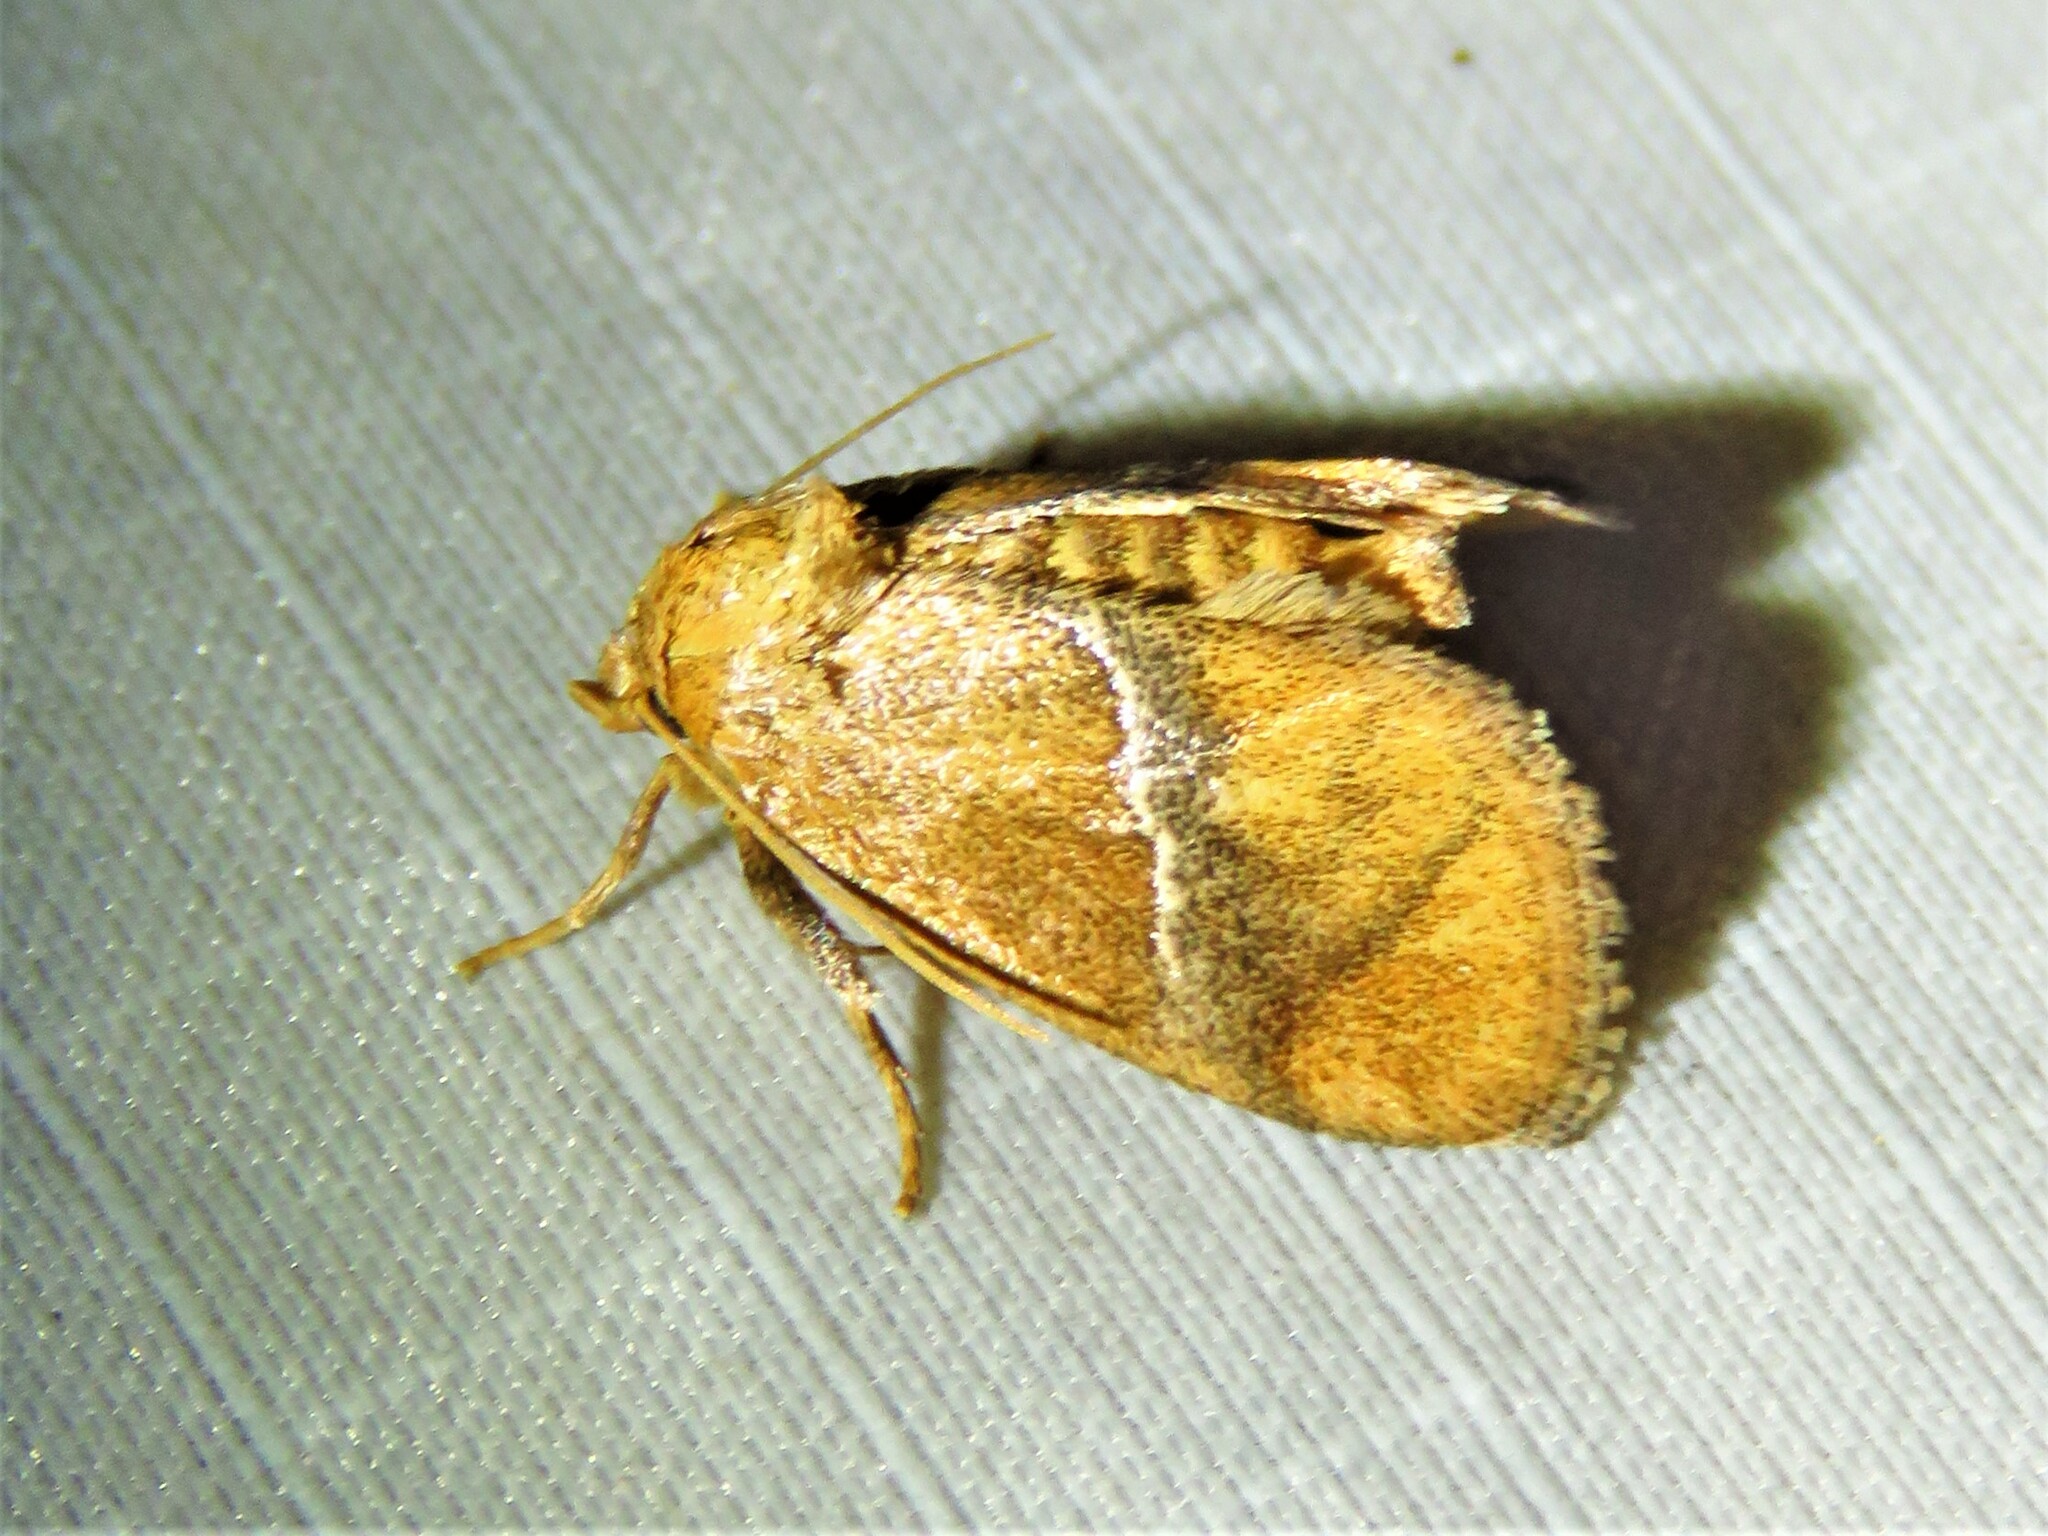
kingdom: Animalia
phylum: Arthropoda
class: Insecta
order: Lepidoptera
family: Limacodidae
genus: Lithacodes
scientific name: Lithacodes gracea
